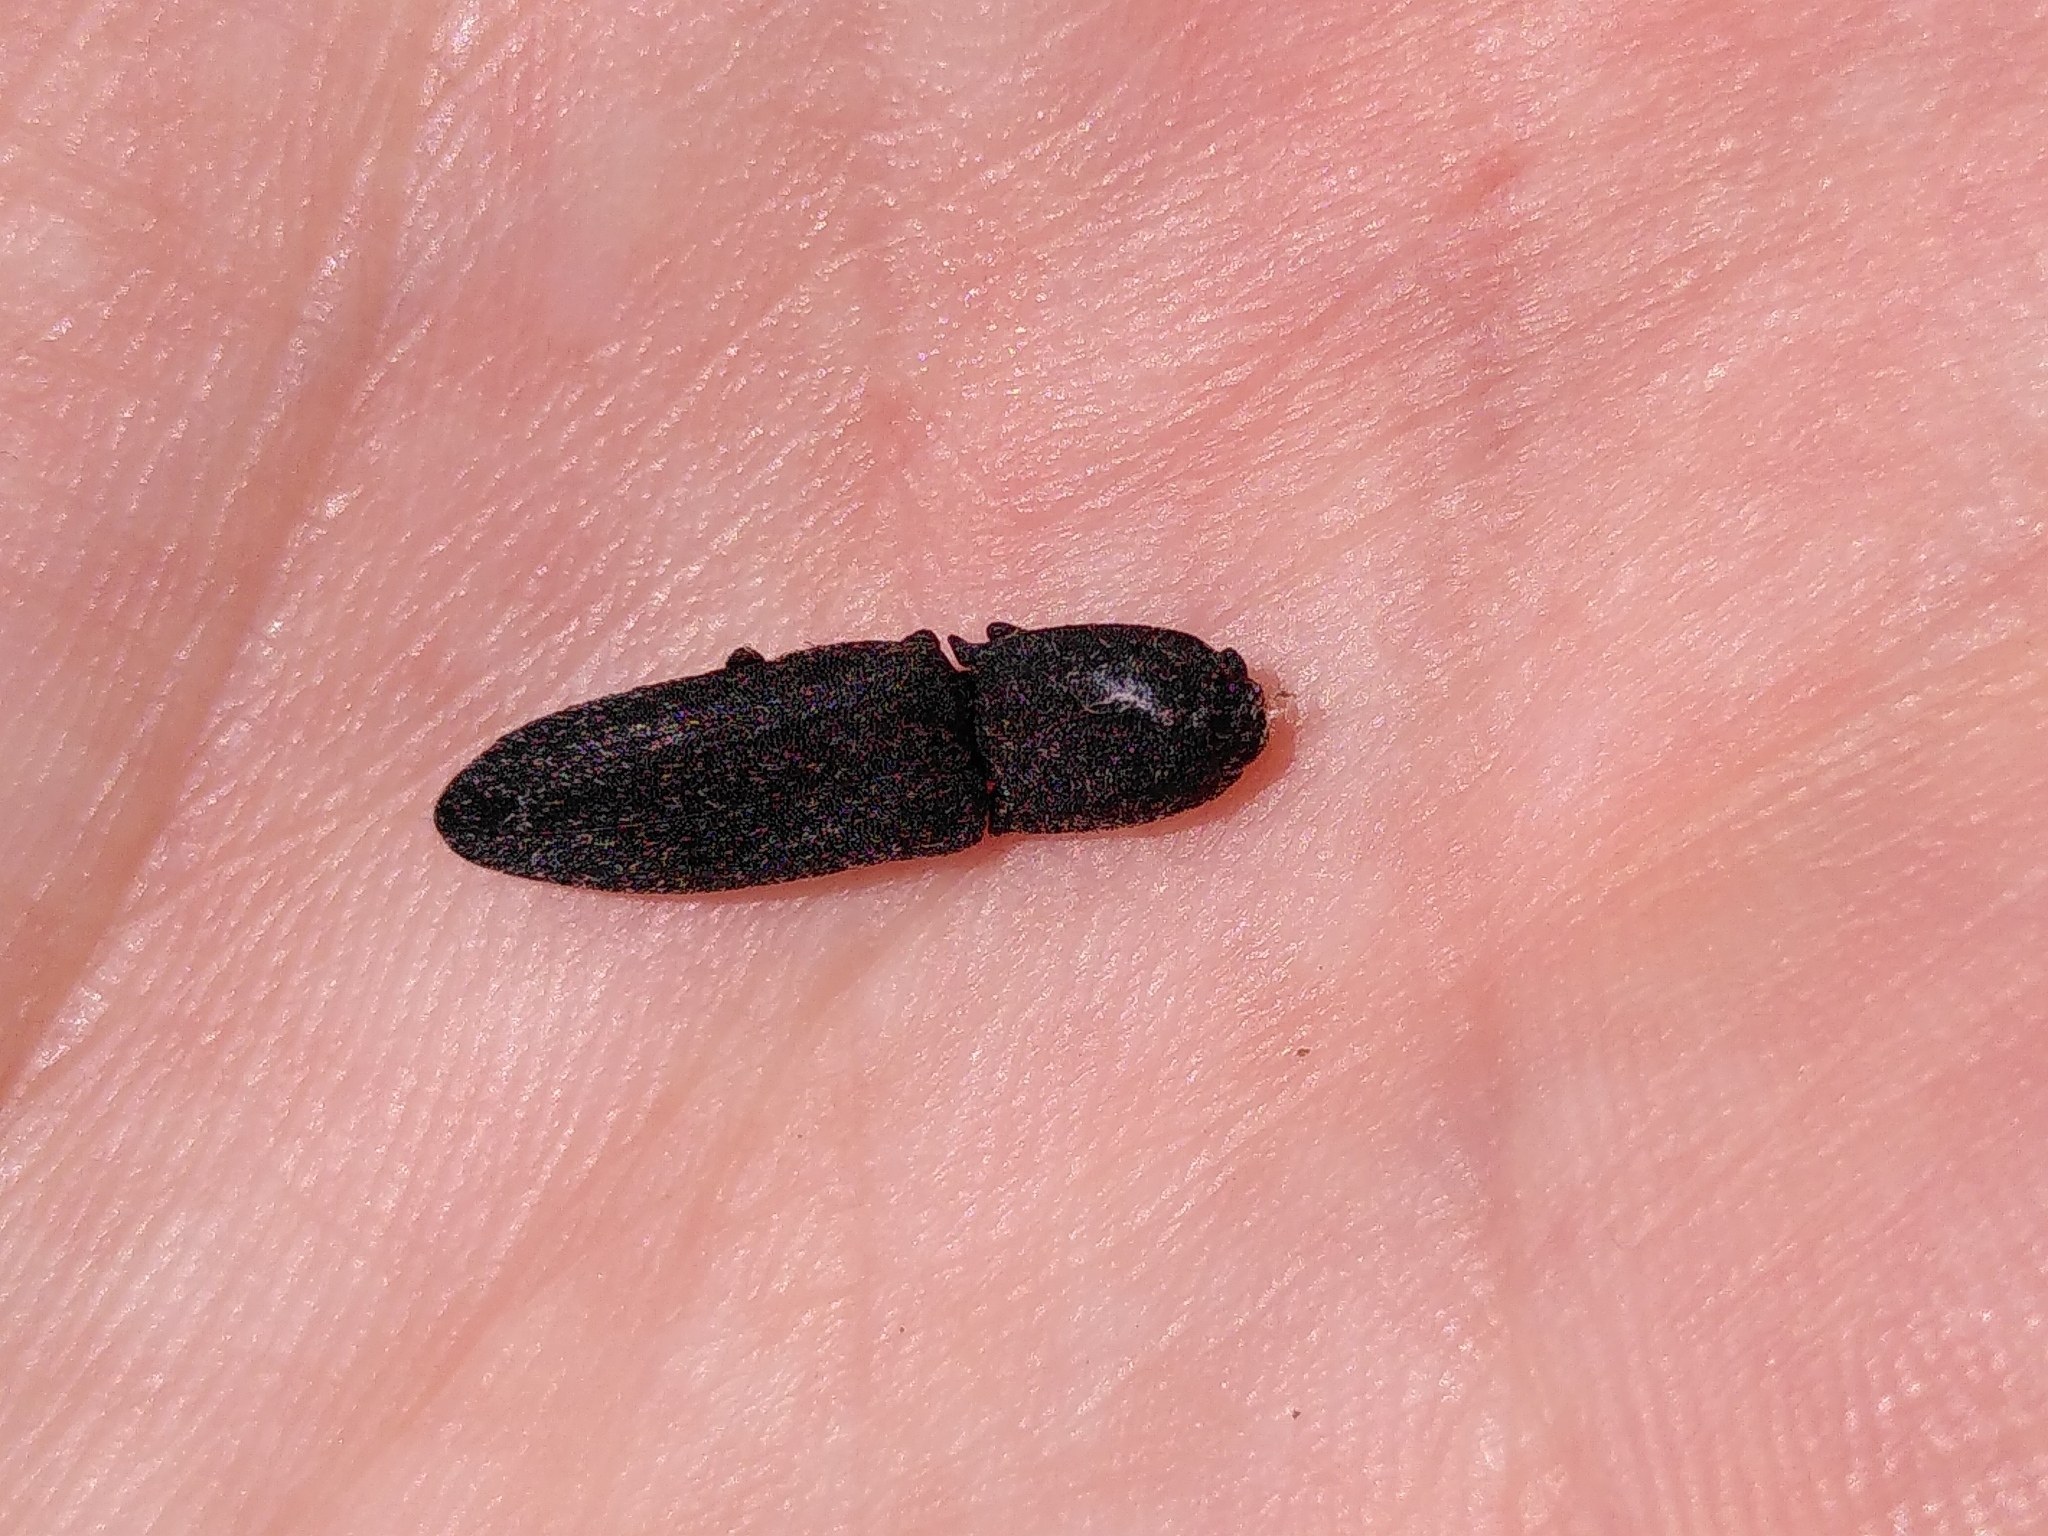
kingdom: Animalia
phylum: Arthropoda
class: Insecta
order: Coleoptera
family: Elateridae
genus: Lacon
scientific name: Lacon punctatus
